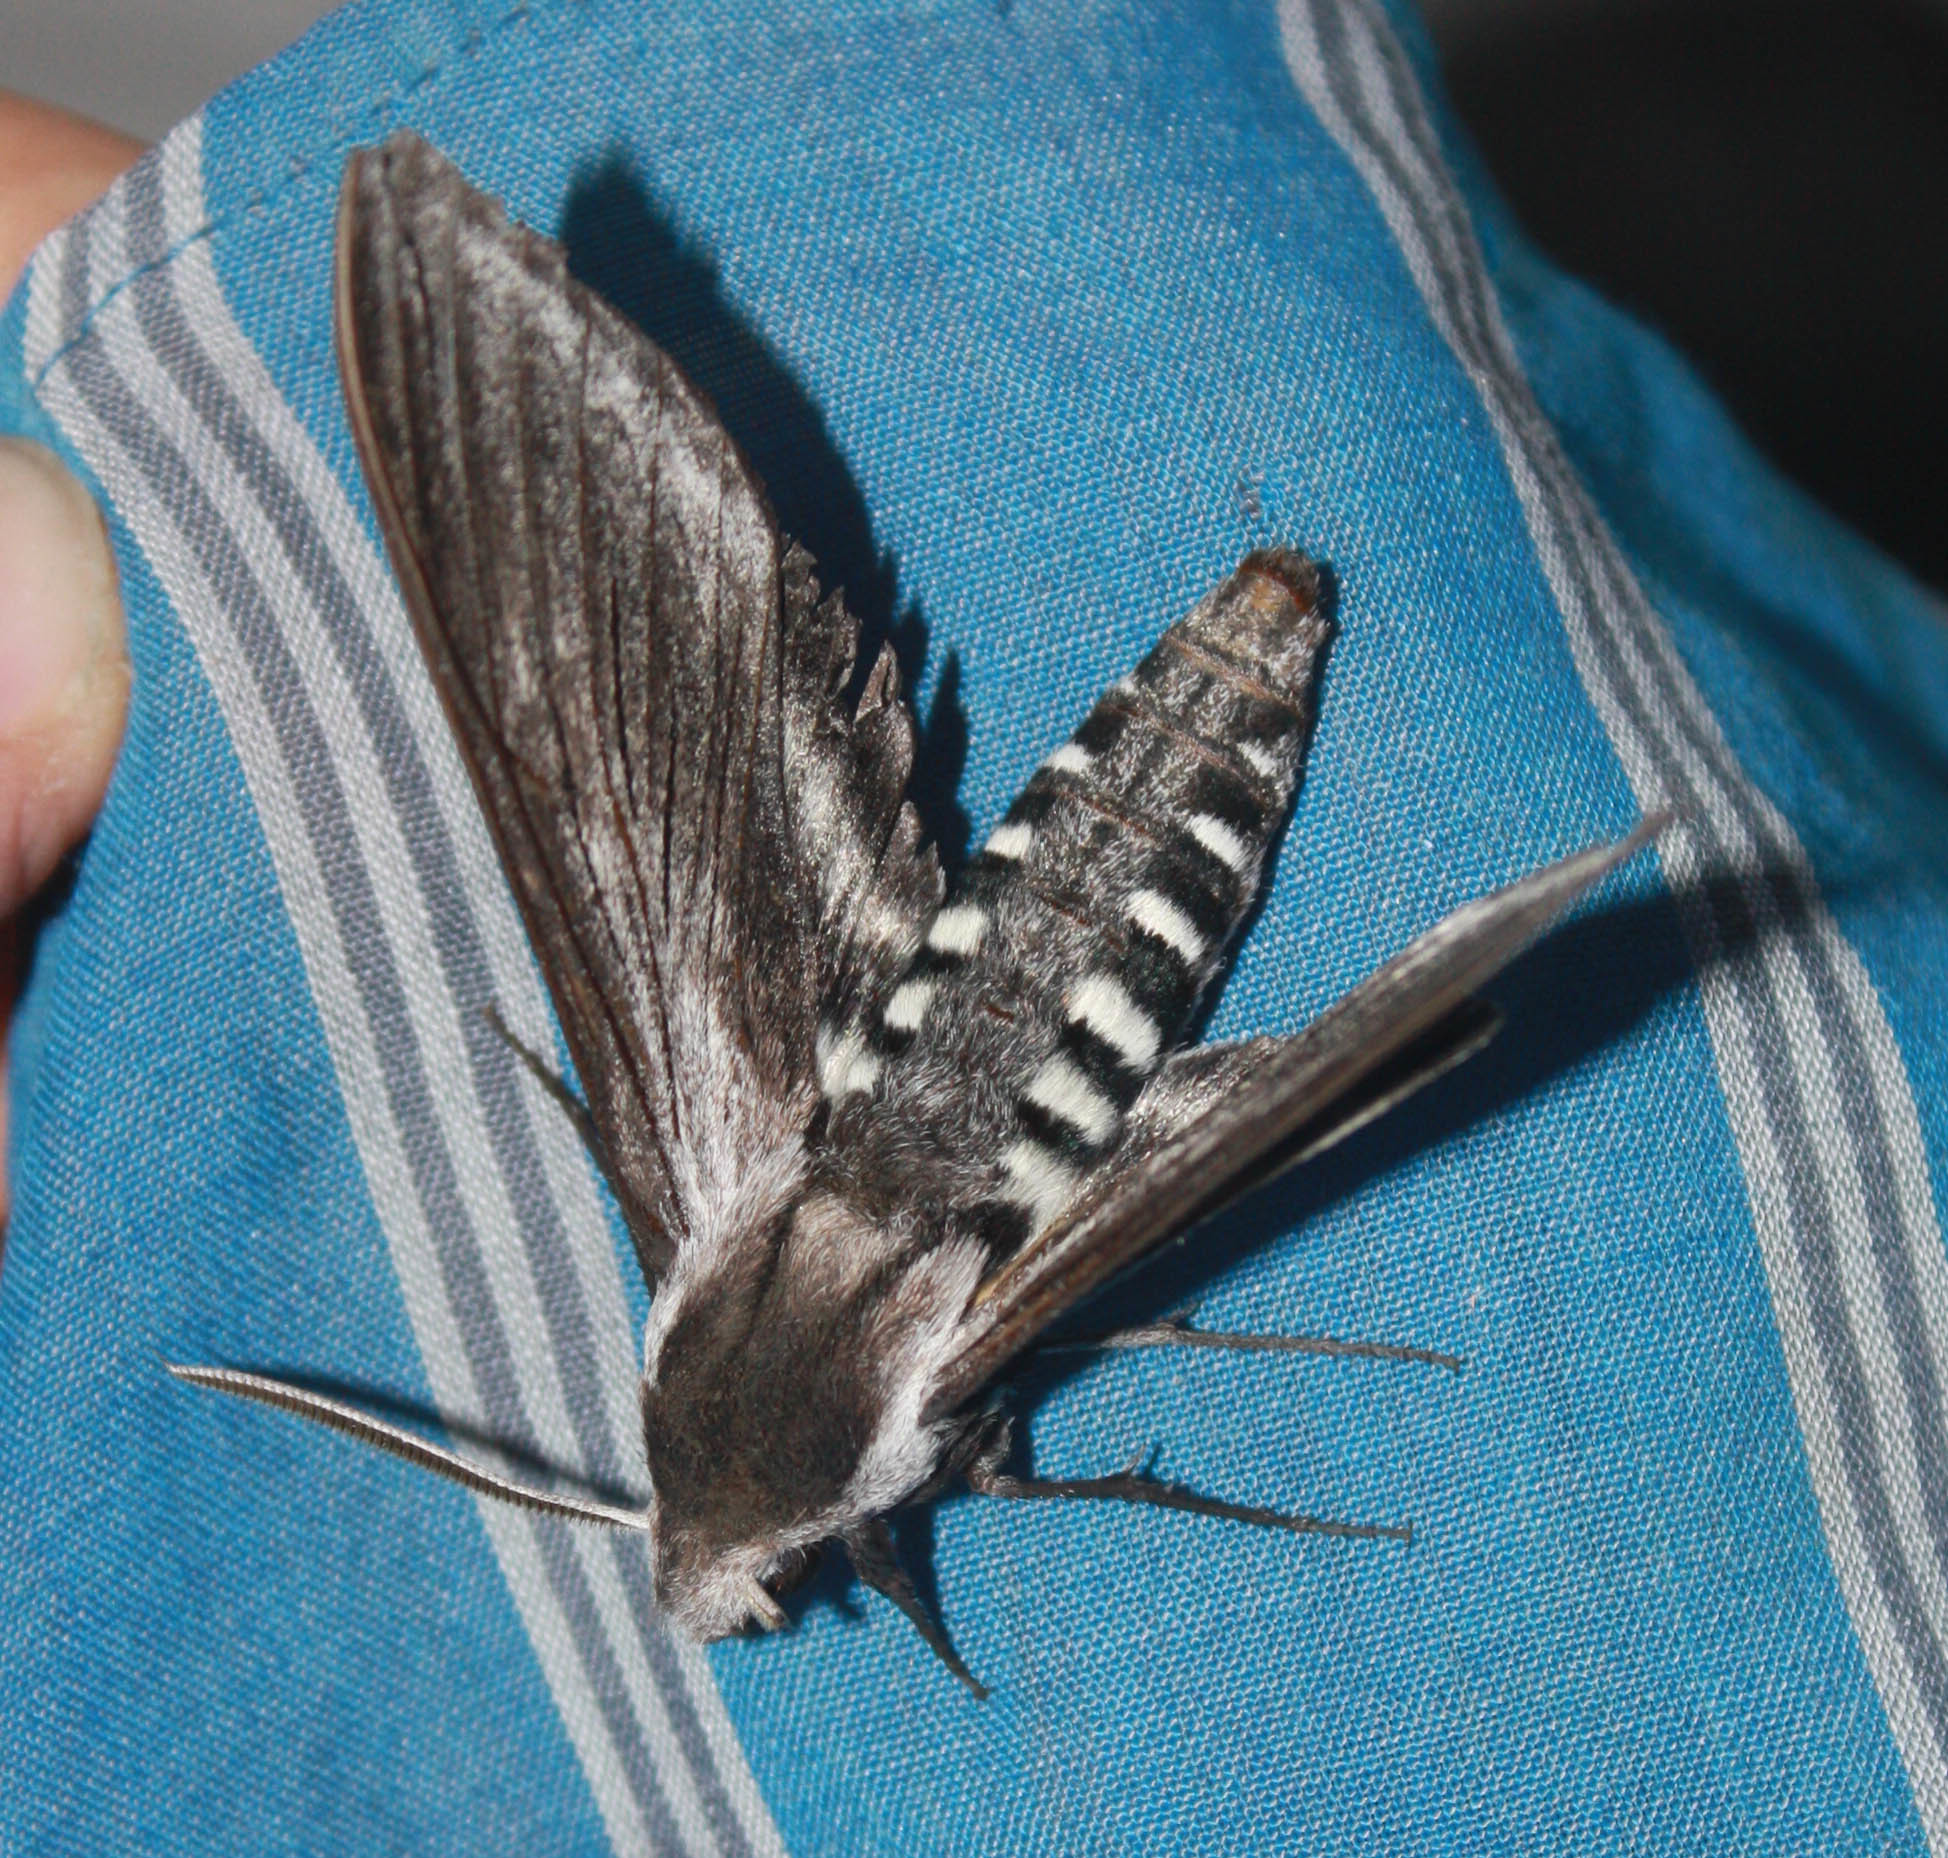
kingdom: Animalia
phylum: Arthropoda
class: Insecta
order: Lepidoptera
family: Sphingidae
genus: Sphinx
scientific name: Sphinx perelegans
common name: Elegant sphinx
